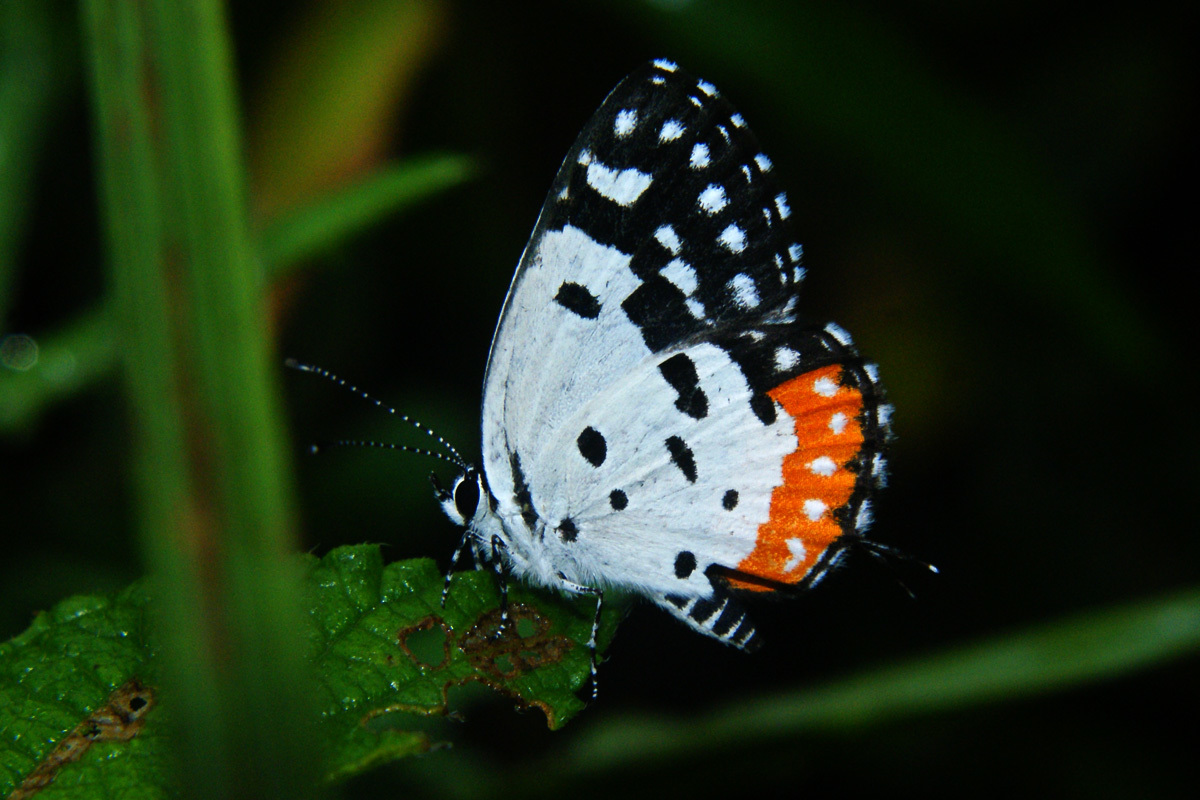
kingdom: Animalia
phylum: Arthropoda
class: Insecta
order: Lepidoptera
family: Lycaenidae
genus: Talicada
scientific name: Talicada nyseus
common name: Red pierrot
